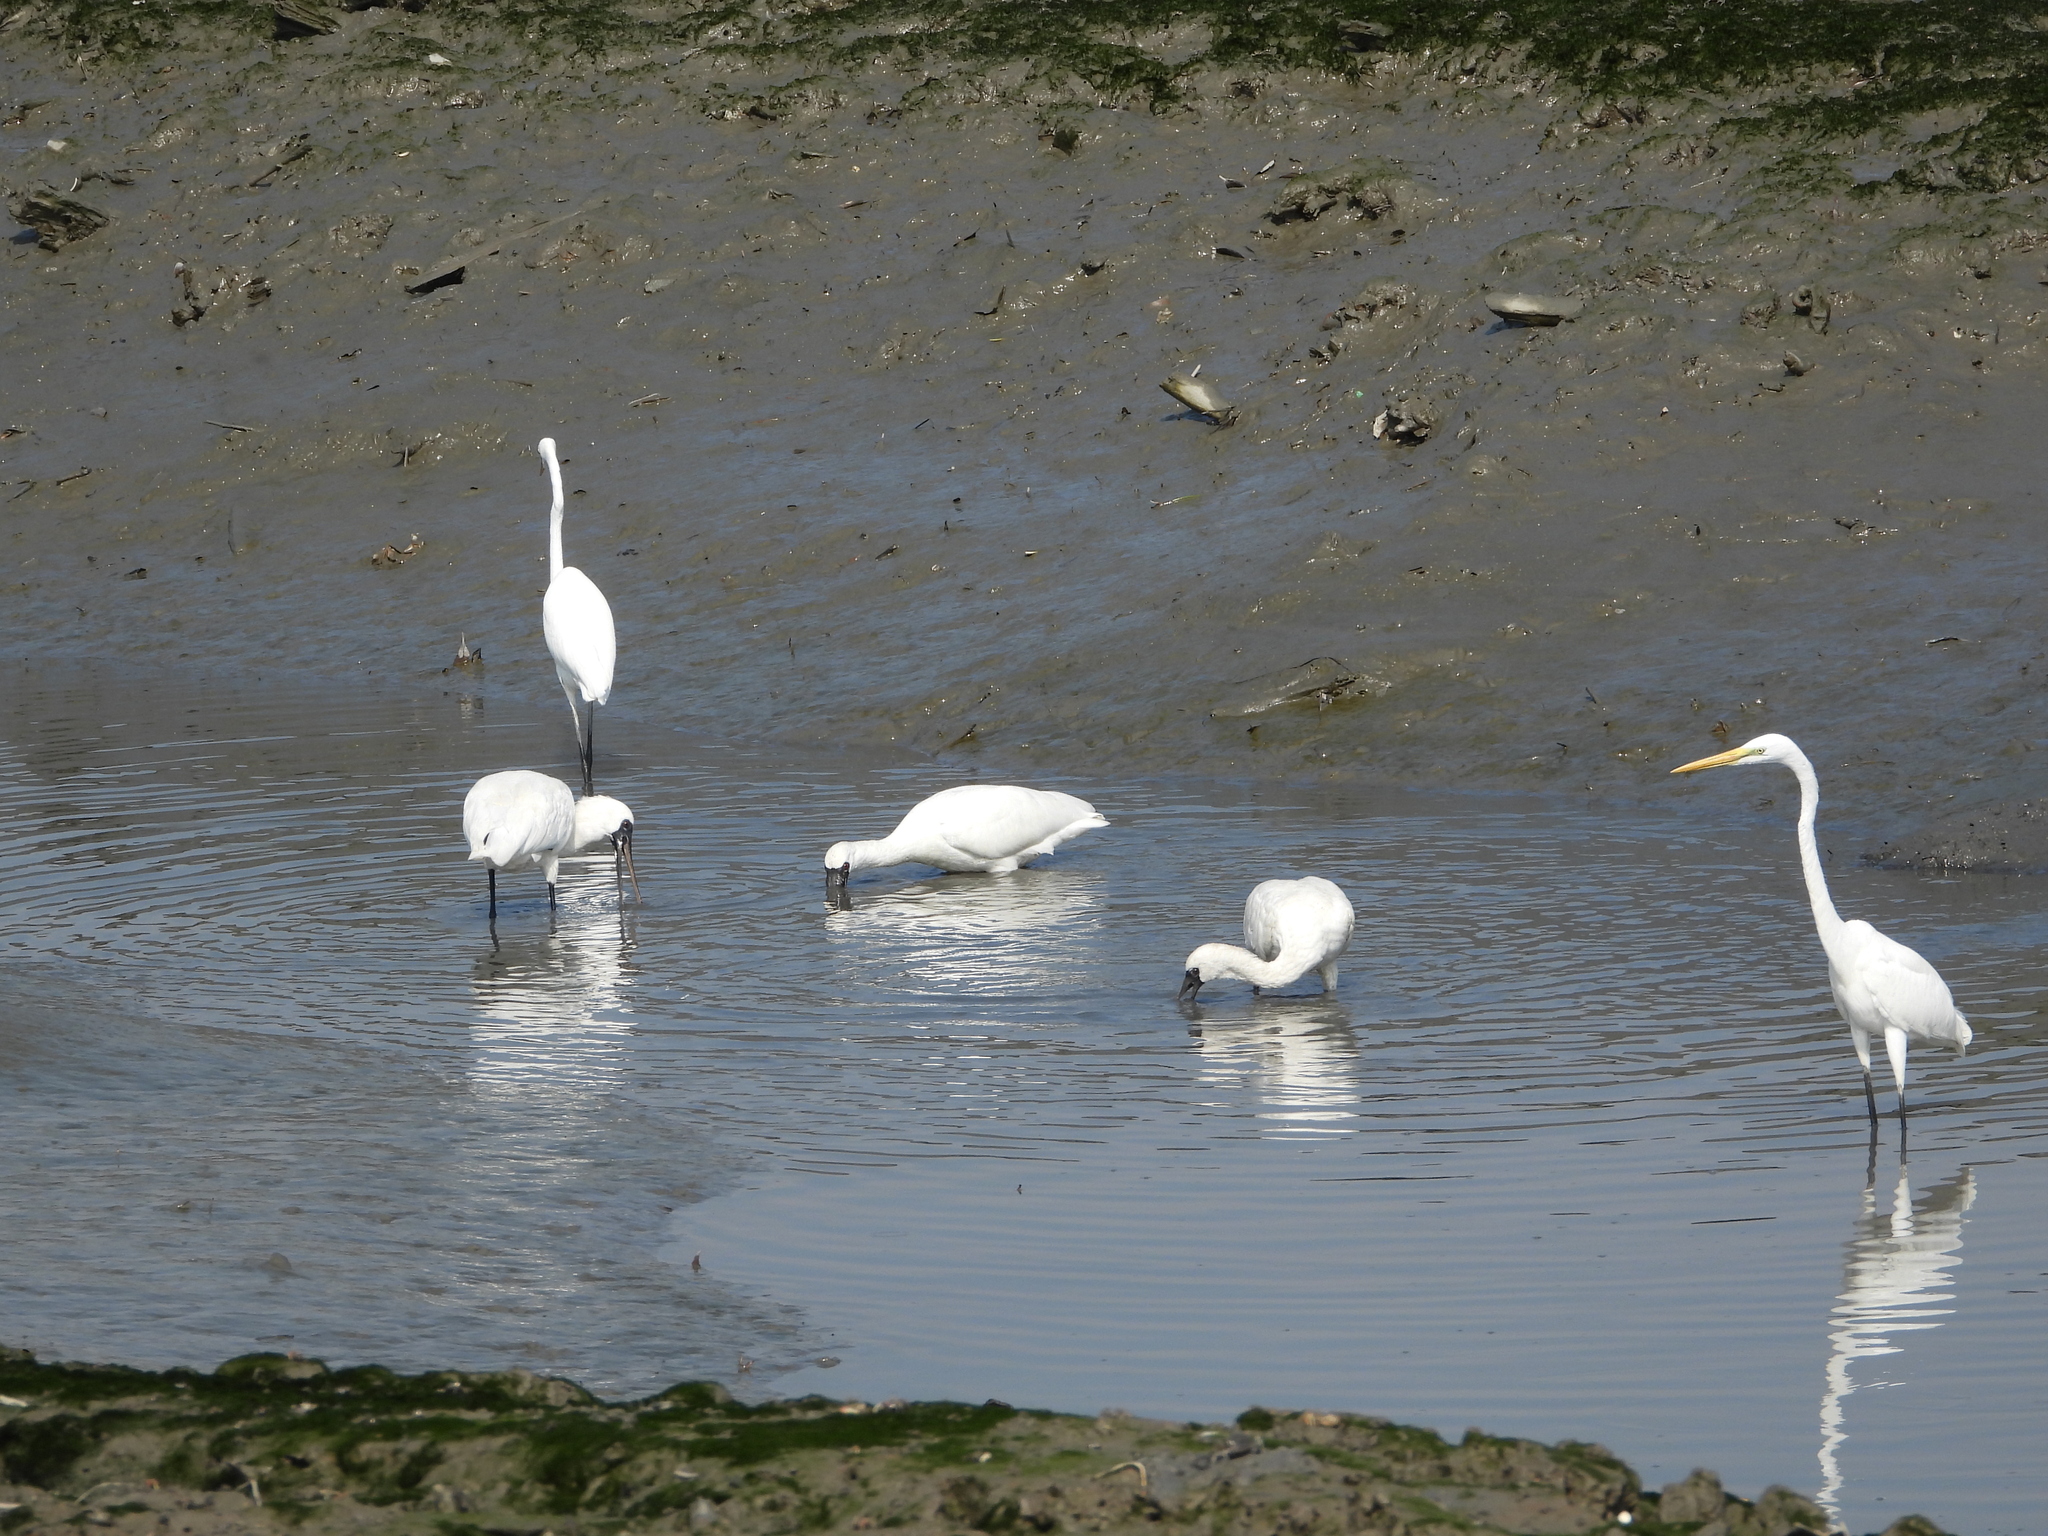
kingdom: Animalia
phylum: Chordata
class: Aves
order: Pelecaniformes
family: Threskiornithidae
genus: Platalea
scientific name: Platalea minor
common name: Black-faced spoonbill
